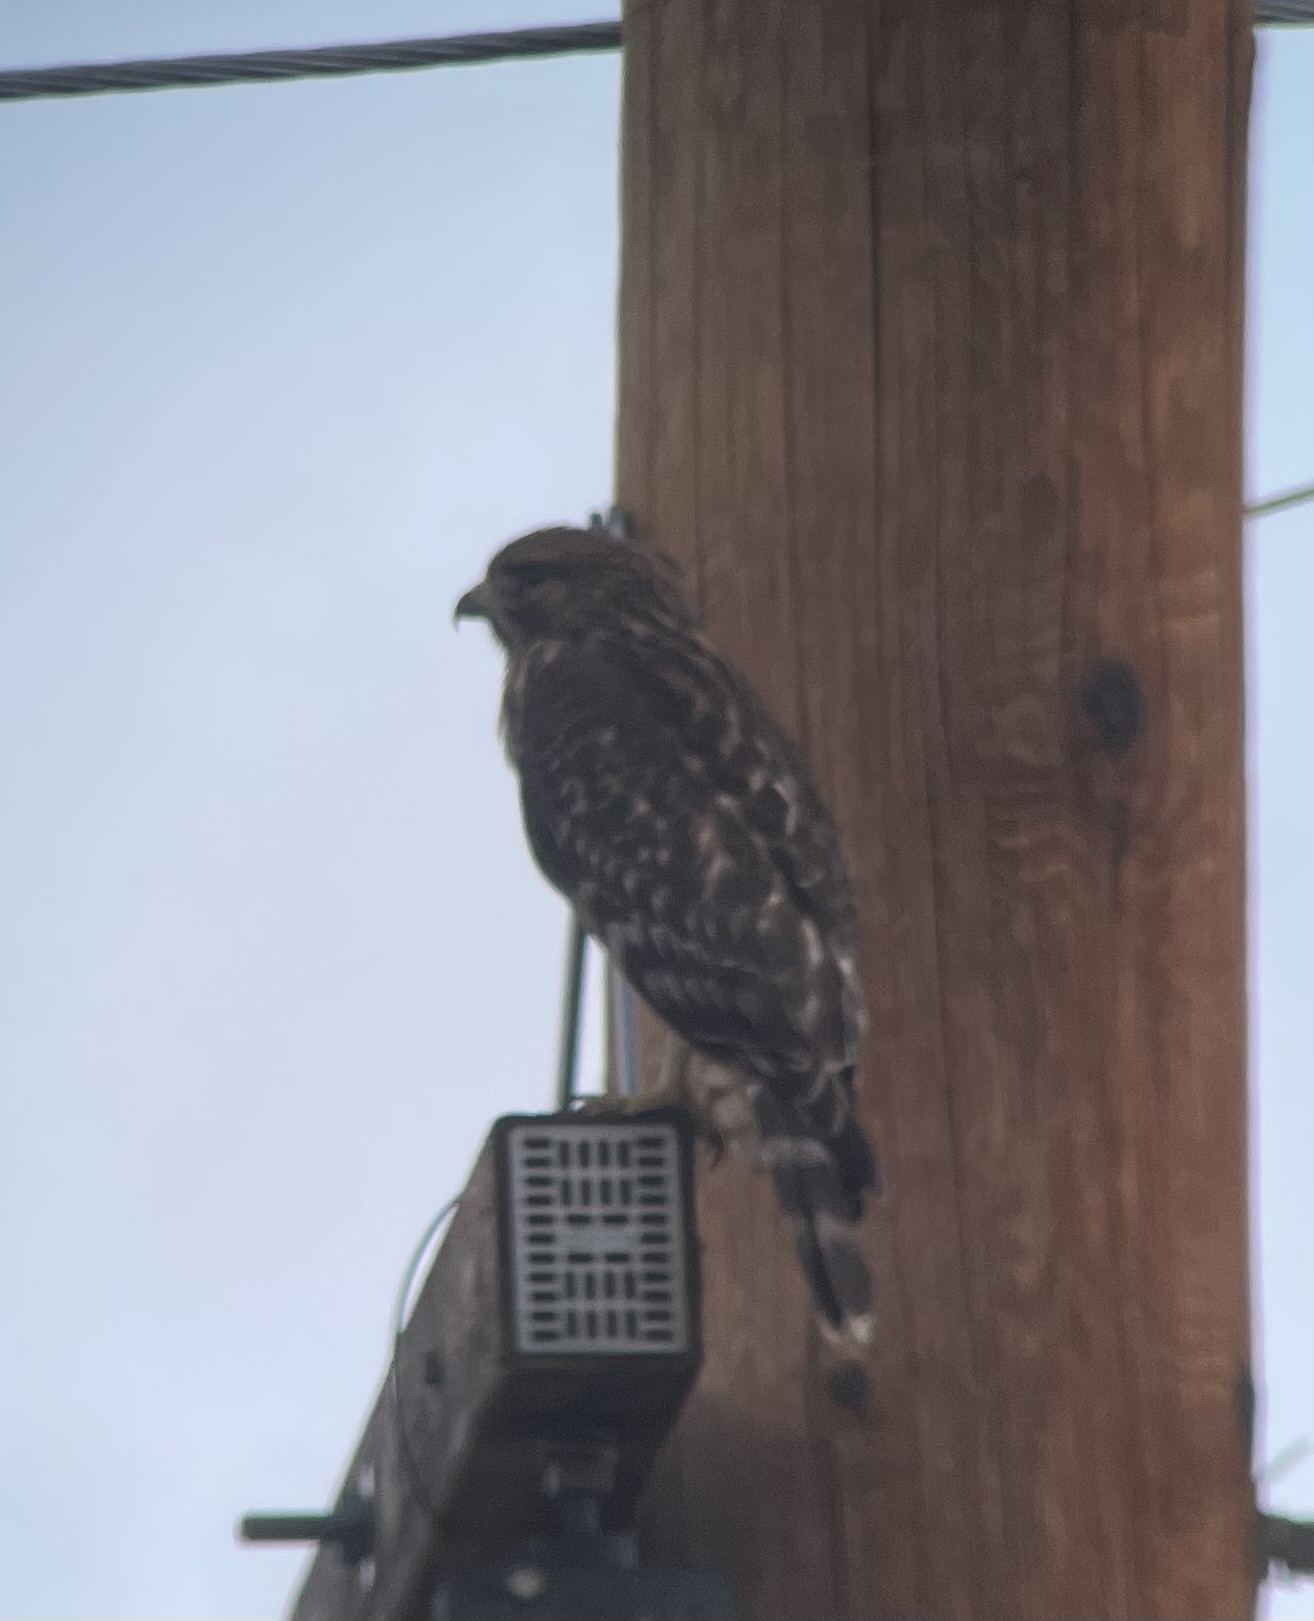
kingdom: Animalia
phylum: Chordata
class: Aves
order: Accipitriformes
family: Accipitridae
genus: Buteo
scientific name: Buteo lineatus
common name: Red-shouldered hawk
